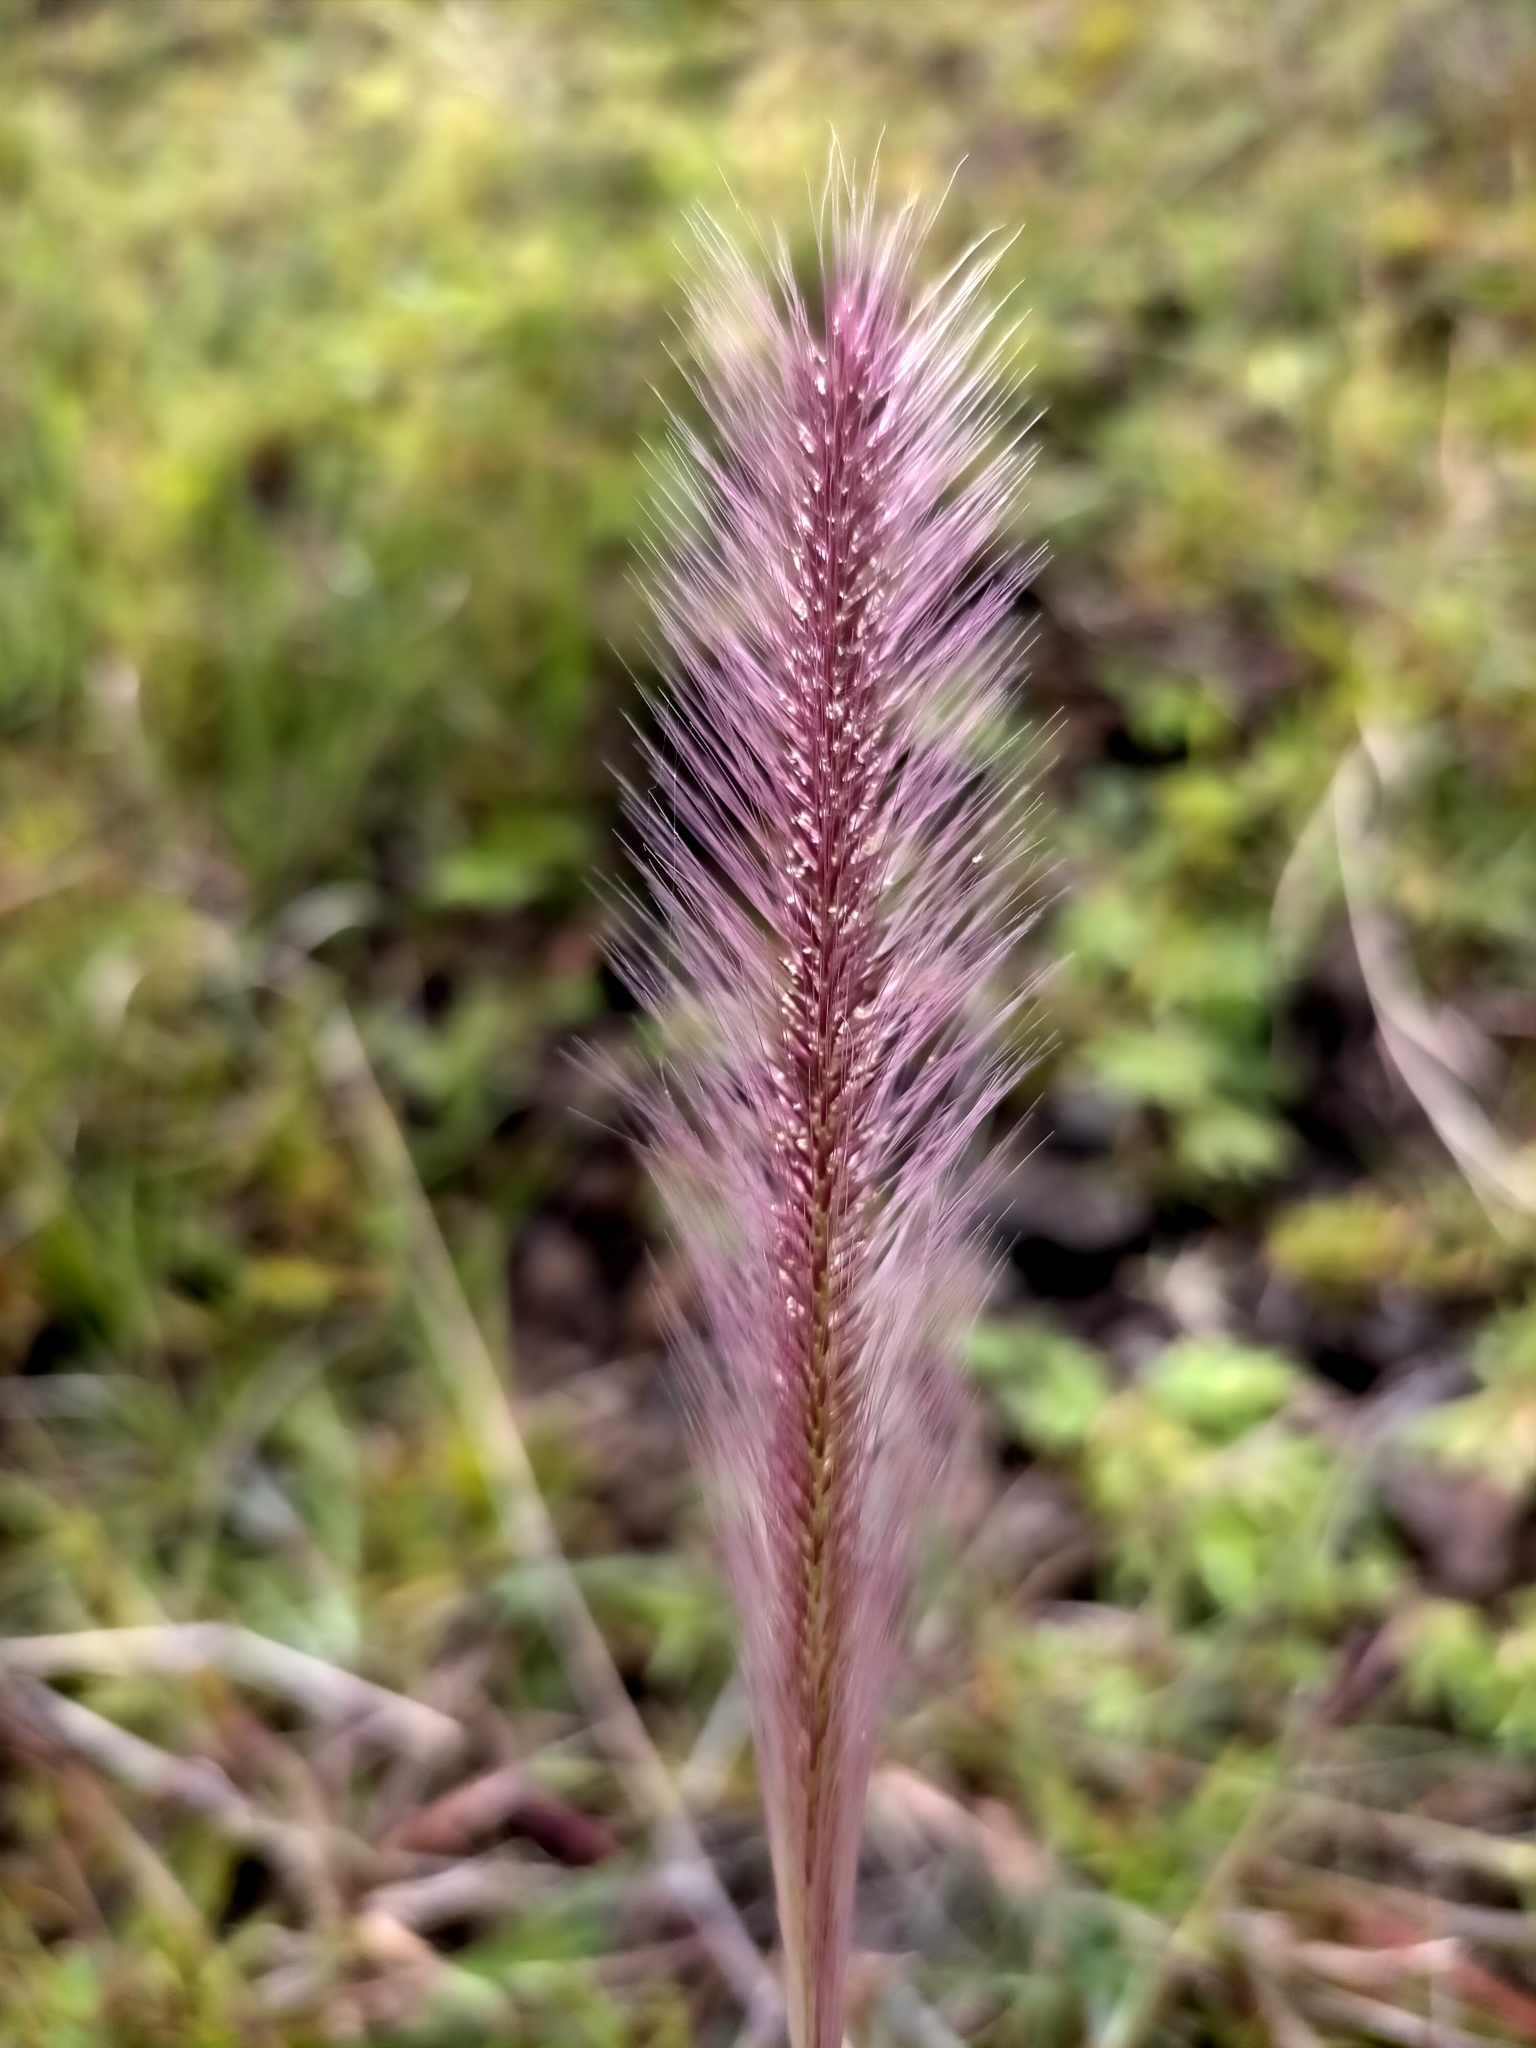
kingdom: Plantae
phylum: Tracheophyta
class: Liliopsida
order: Poales
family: Poaceae
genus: Perotis
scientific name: Perotis patens
